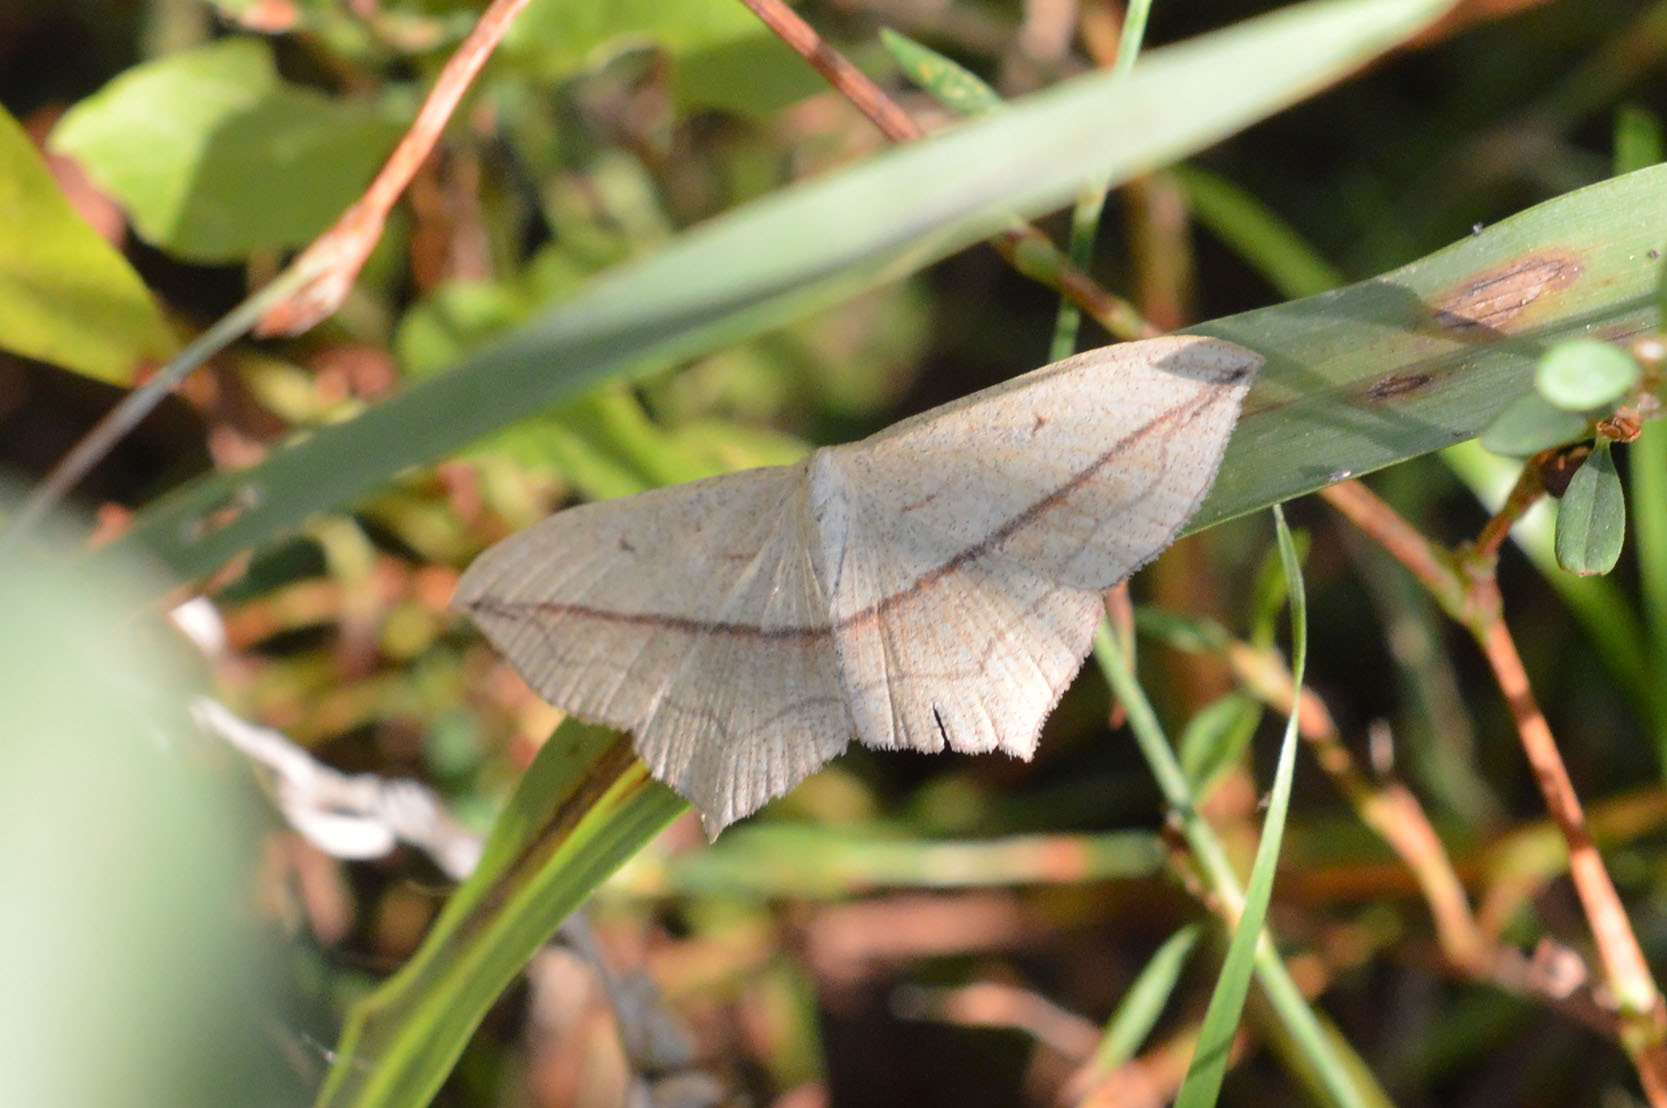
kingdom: Animalia
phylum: Arthropoda
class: Insecta
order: Lepidoptera
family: Geometridae
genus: Timandra
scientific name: Timandra comae
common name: Blood-vein
